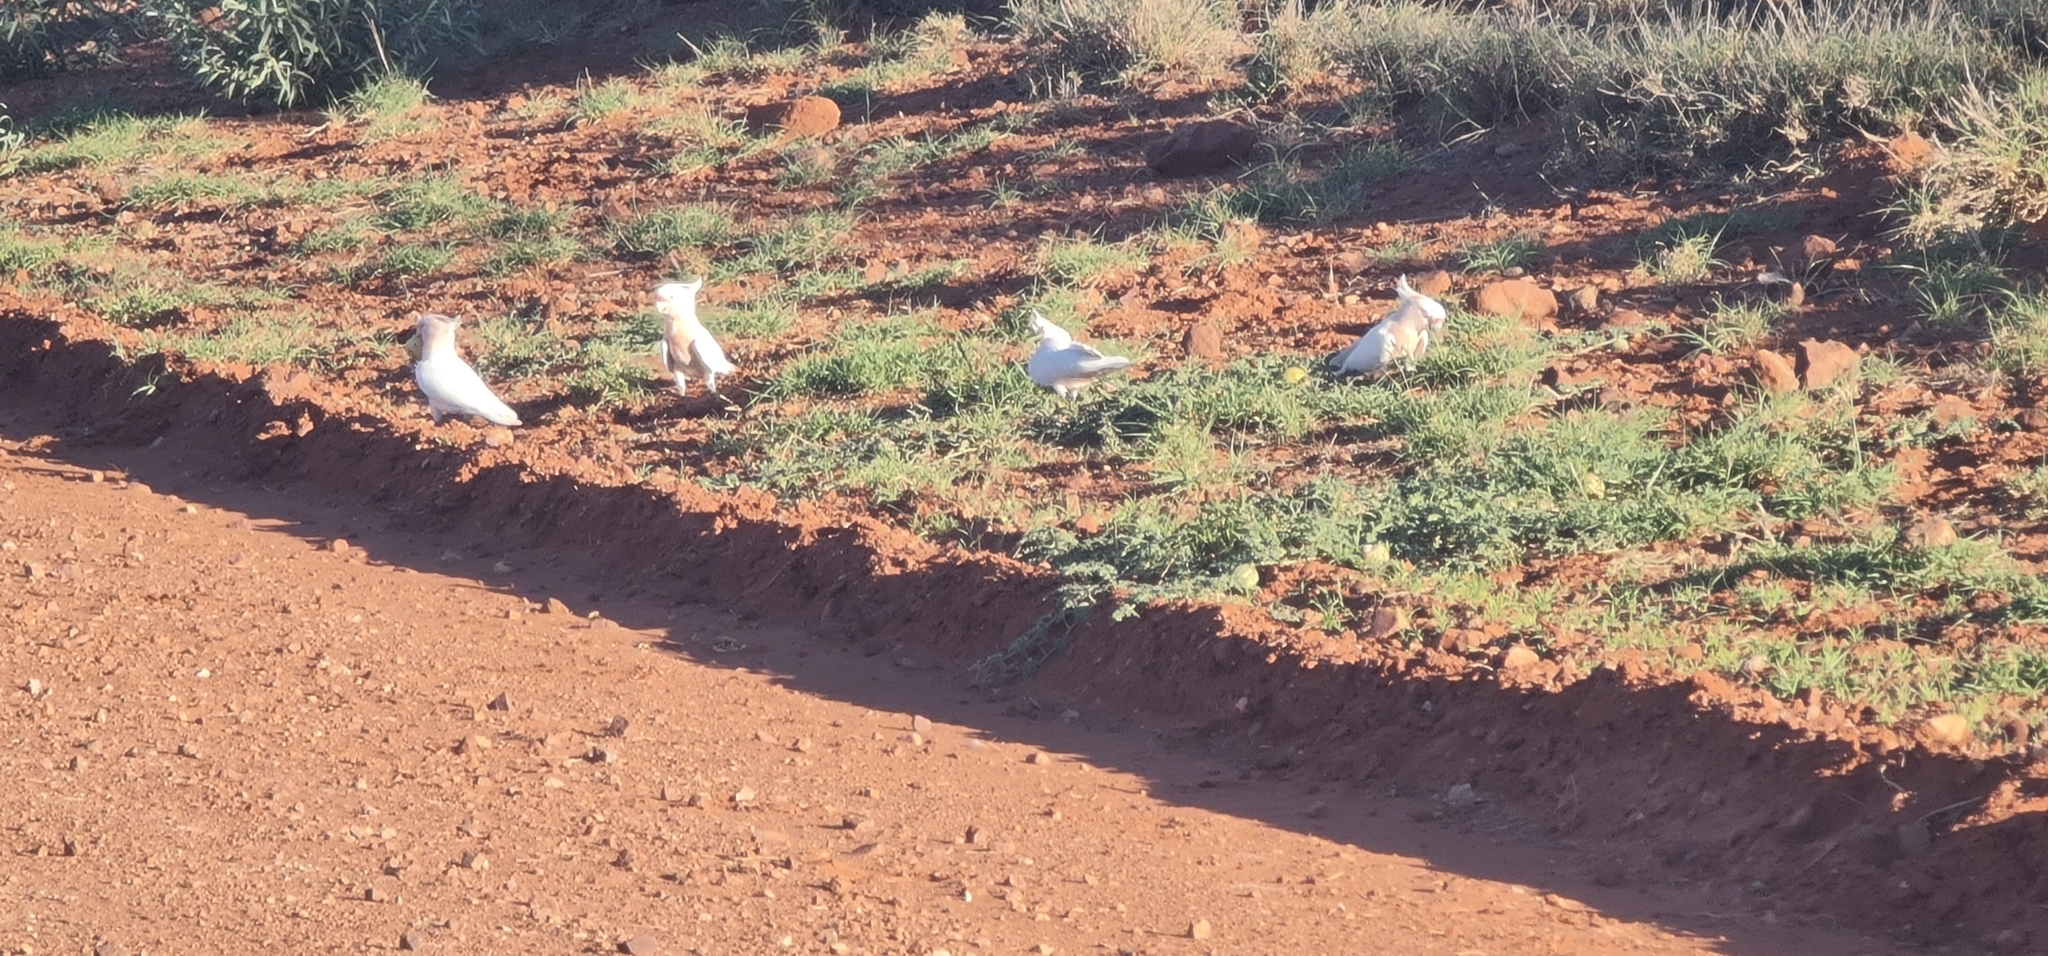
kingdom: Animalia
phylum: Chordata
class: Aves
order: Psittaciformes
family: Psittacidae
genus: Cacatua
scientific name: Cacatua leadbeateri
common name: Major mitchell's cockatoo
